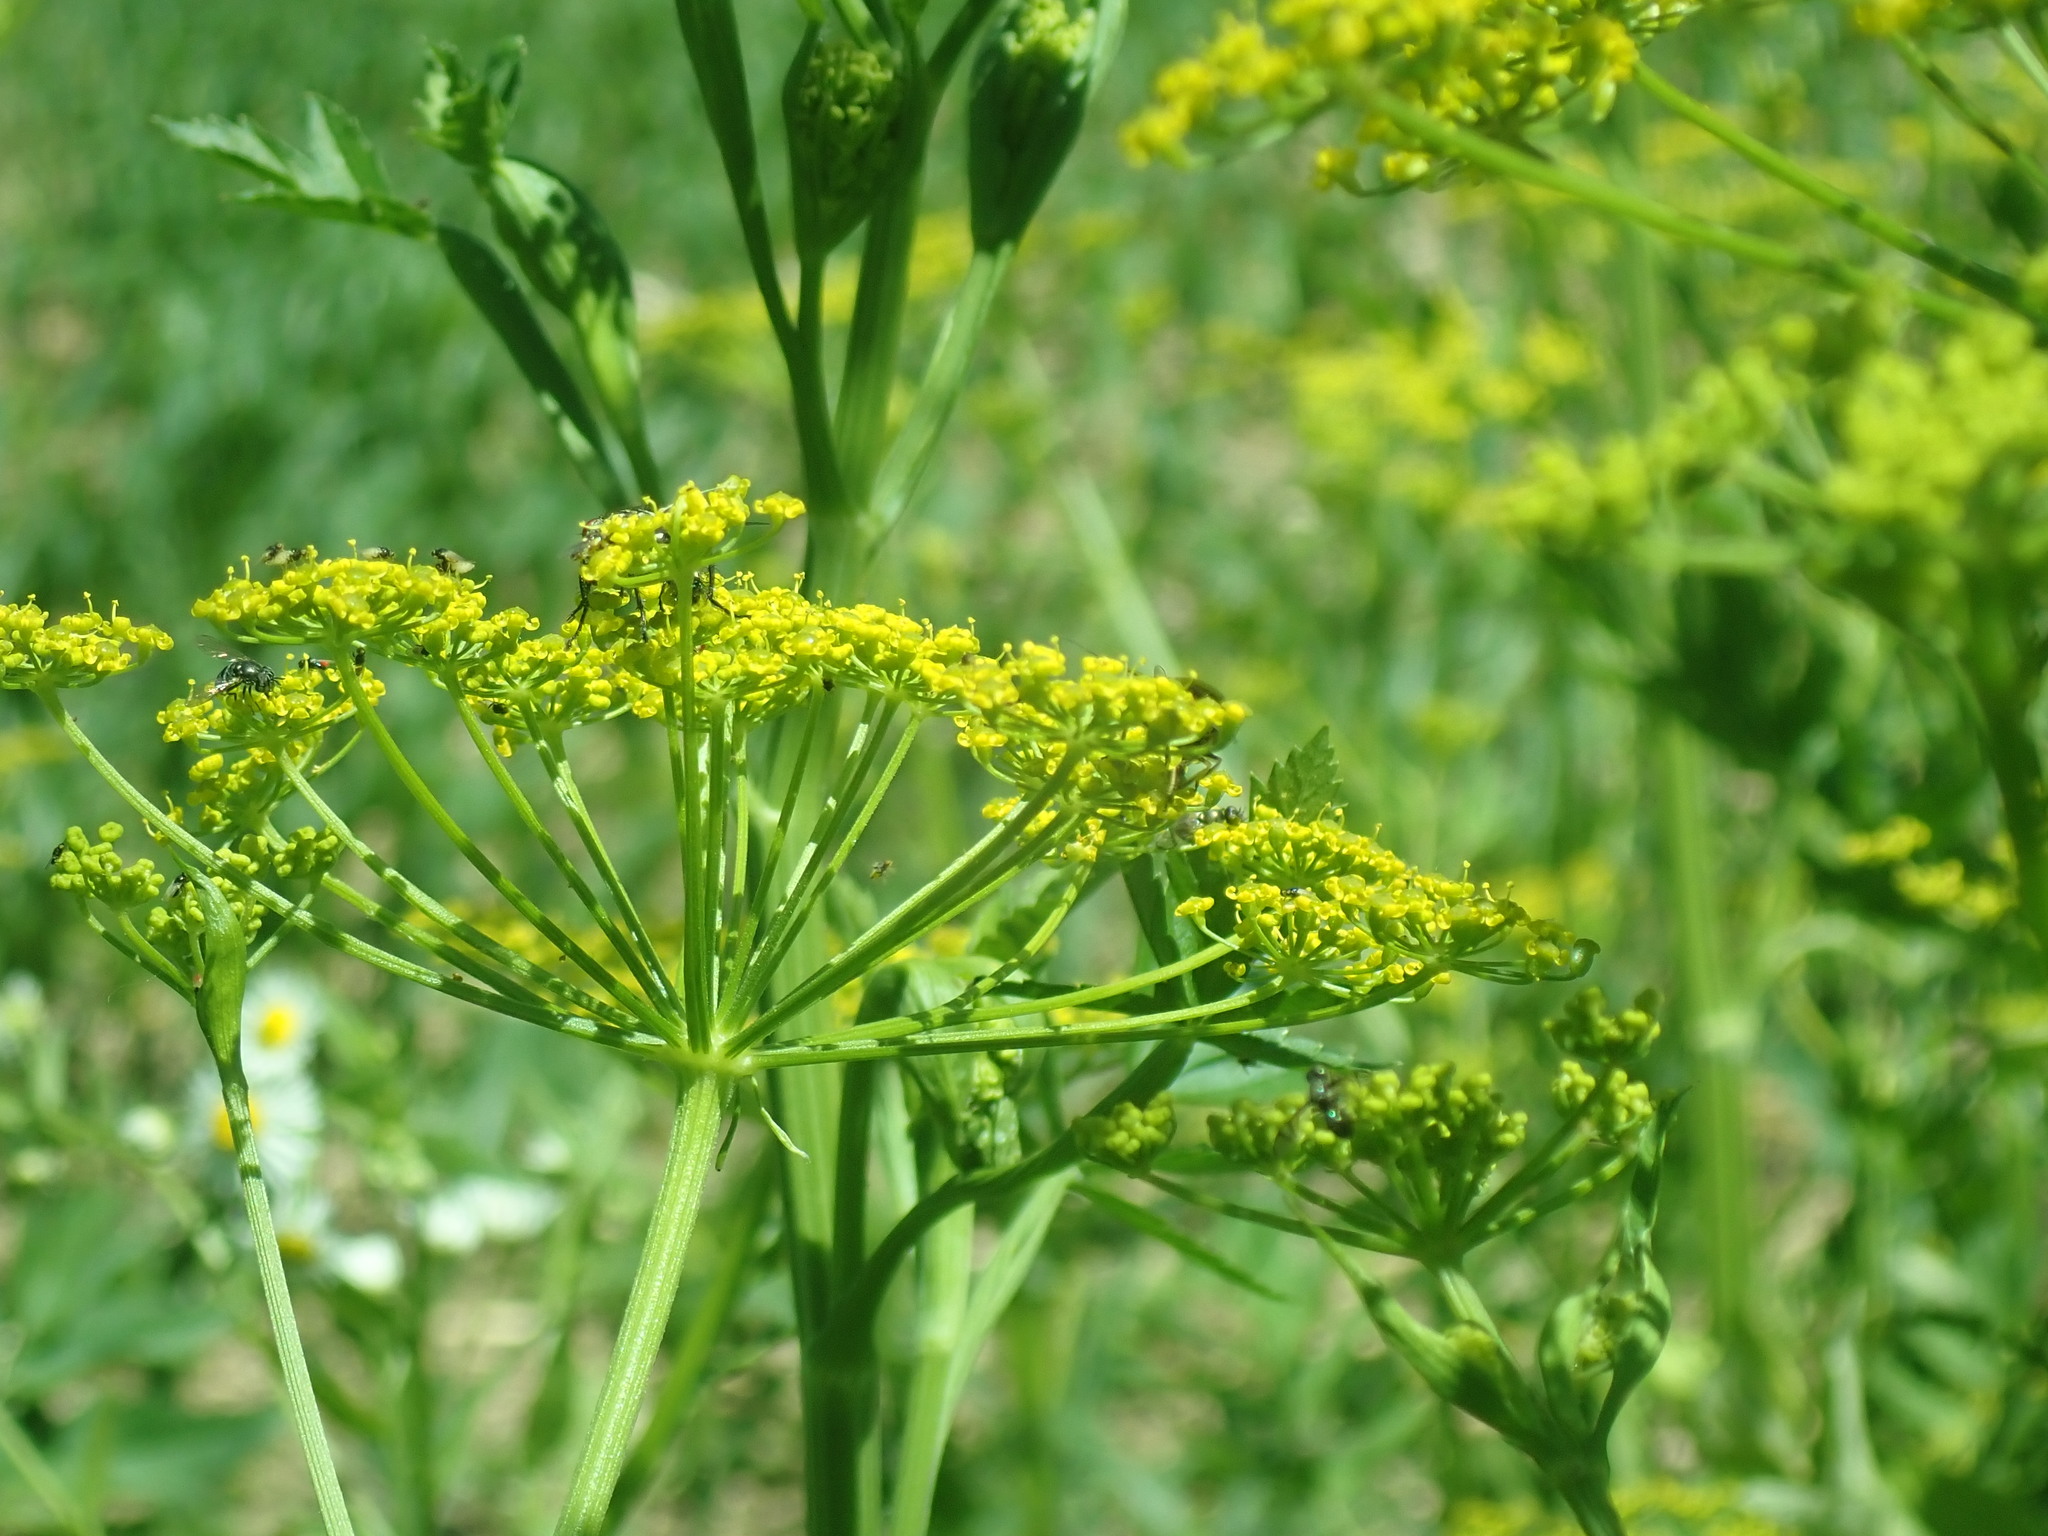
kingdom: Plantae
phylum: Tracheophyta
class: Magnoliopsida
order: Apiales
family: Apiaceae
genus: Pastinaca
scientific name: Pastinaca sativa
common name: Wild parsnip
